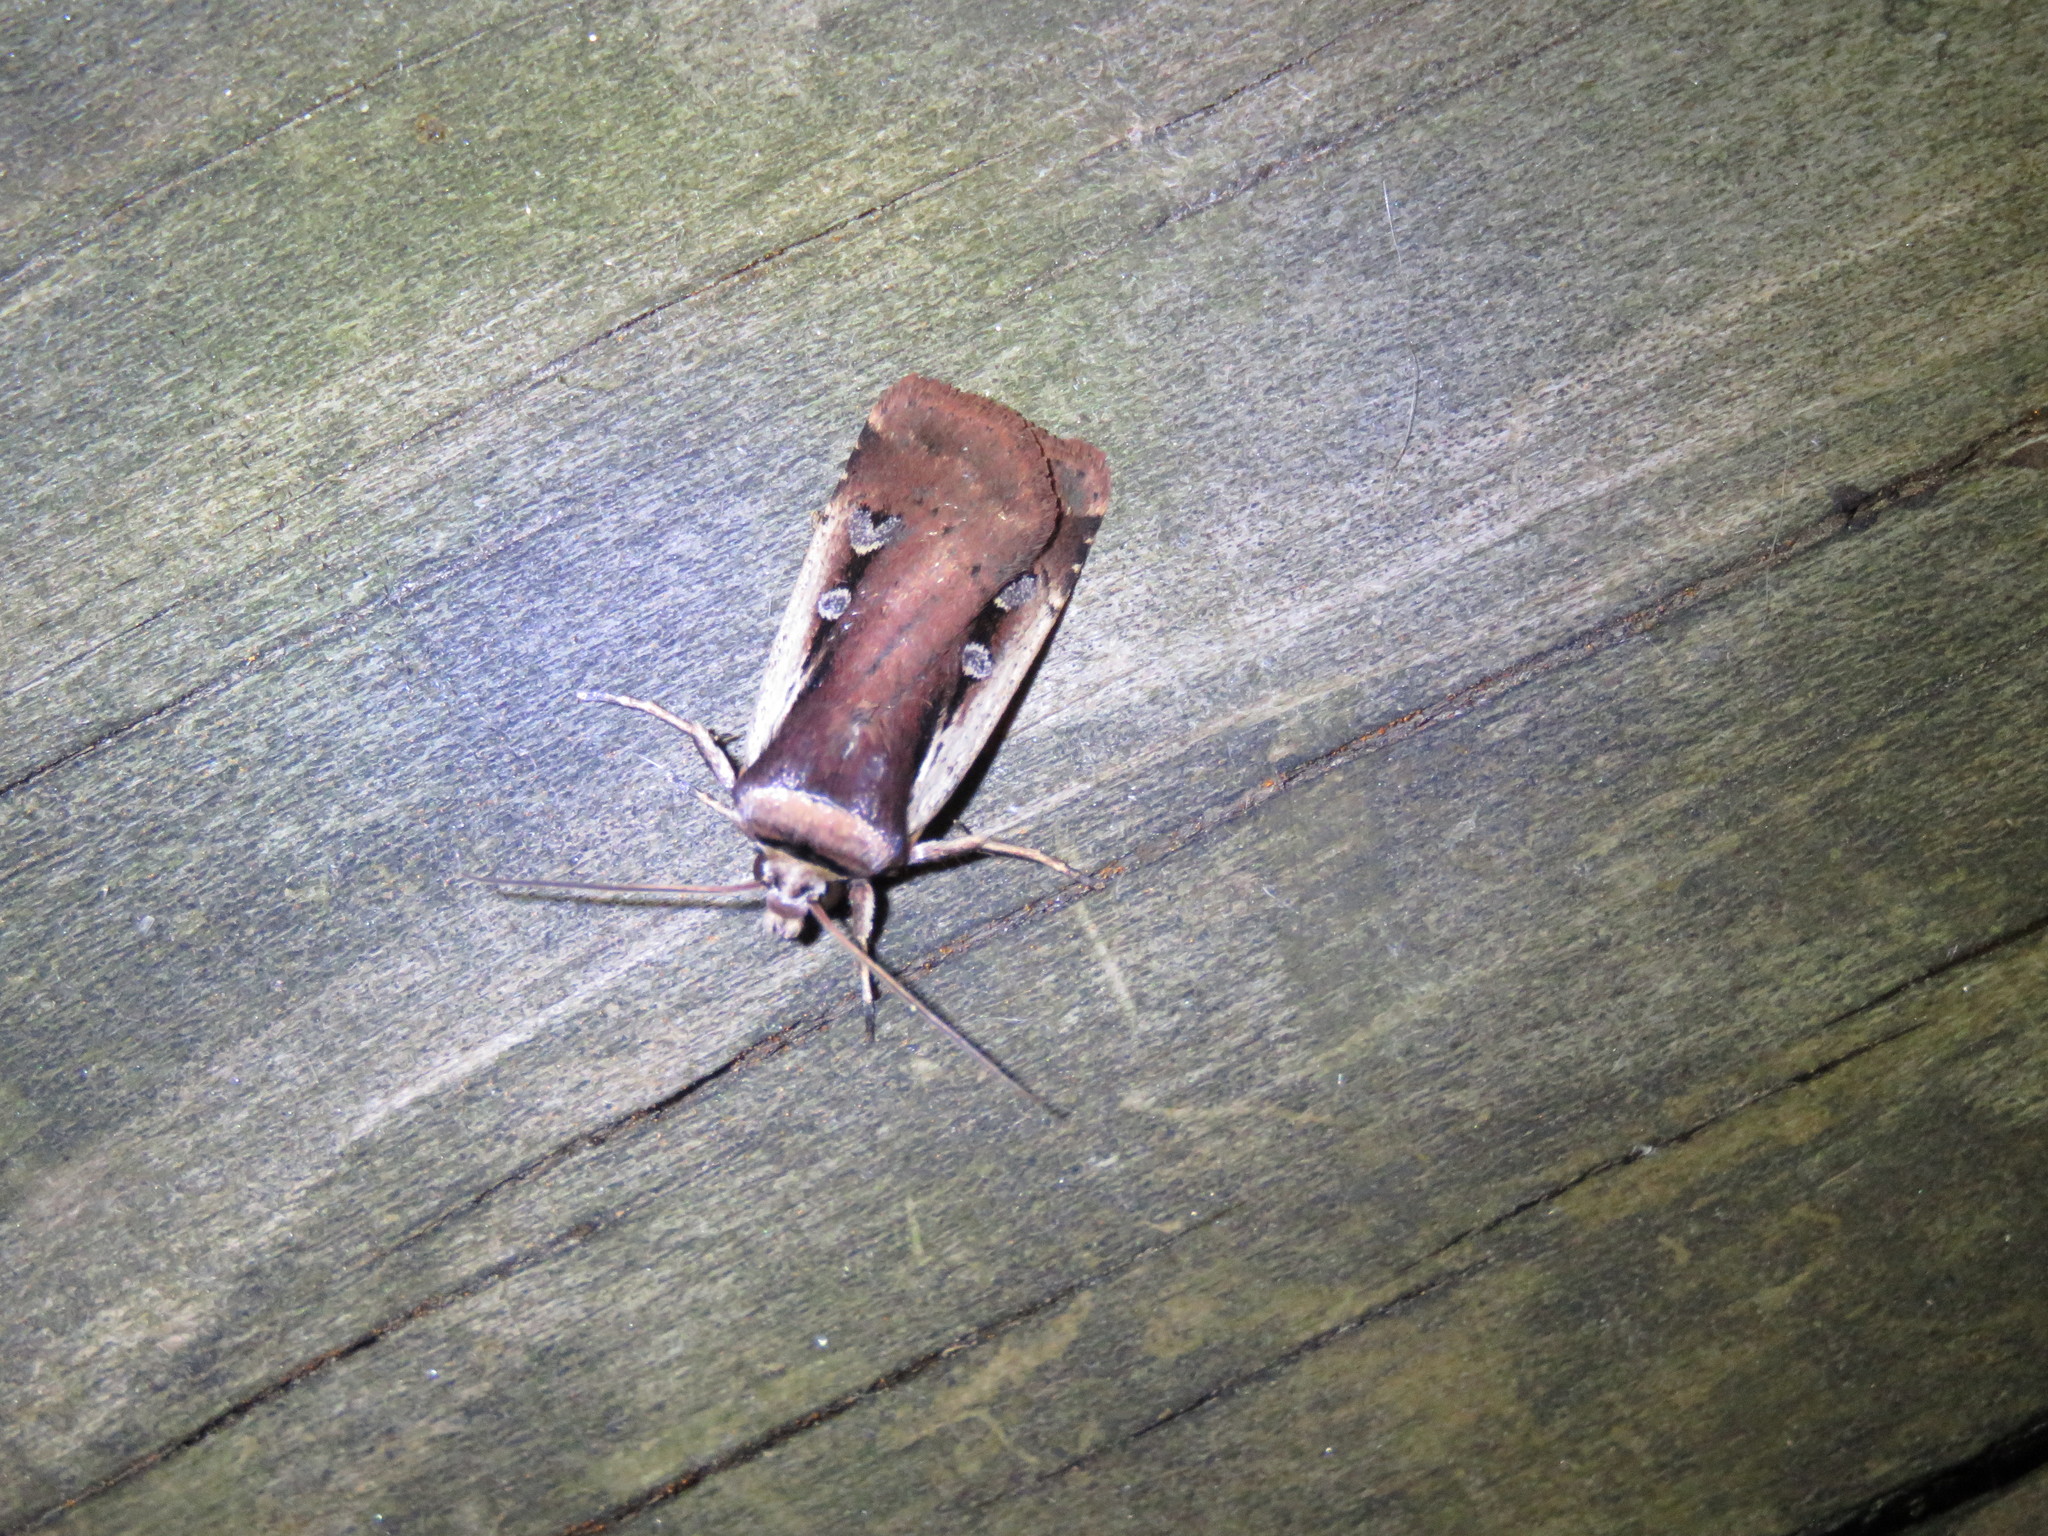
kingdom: Animalia
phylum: Arthropoda
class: Insecta
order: Lepidoptera
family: Noctuidae
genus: Ochropleura
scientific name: Ochropleura implecta
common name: Flame-shouldered dart
